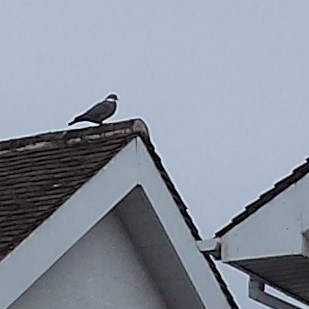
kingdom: Animalia
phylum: Chordata
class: Aves
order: Columbiformes
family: Columbidae
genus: Columba
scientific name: Columba palumbus
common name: Common wood pigeon
